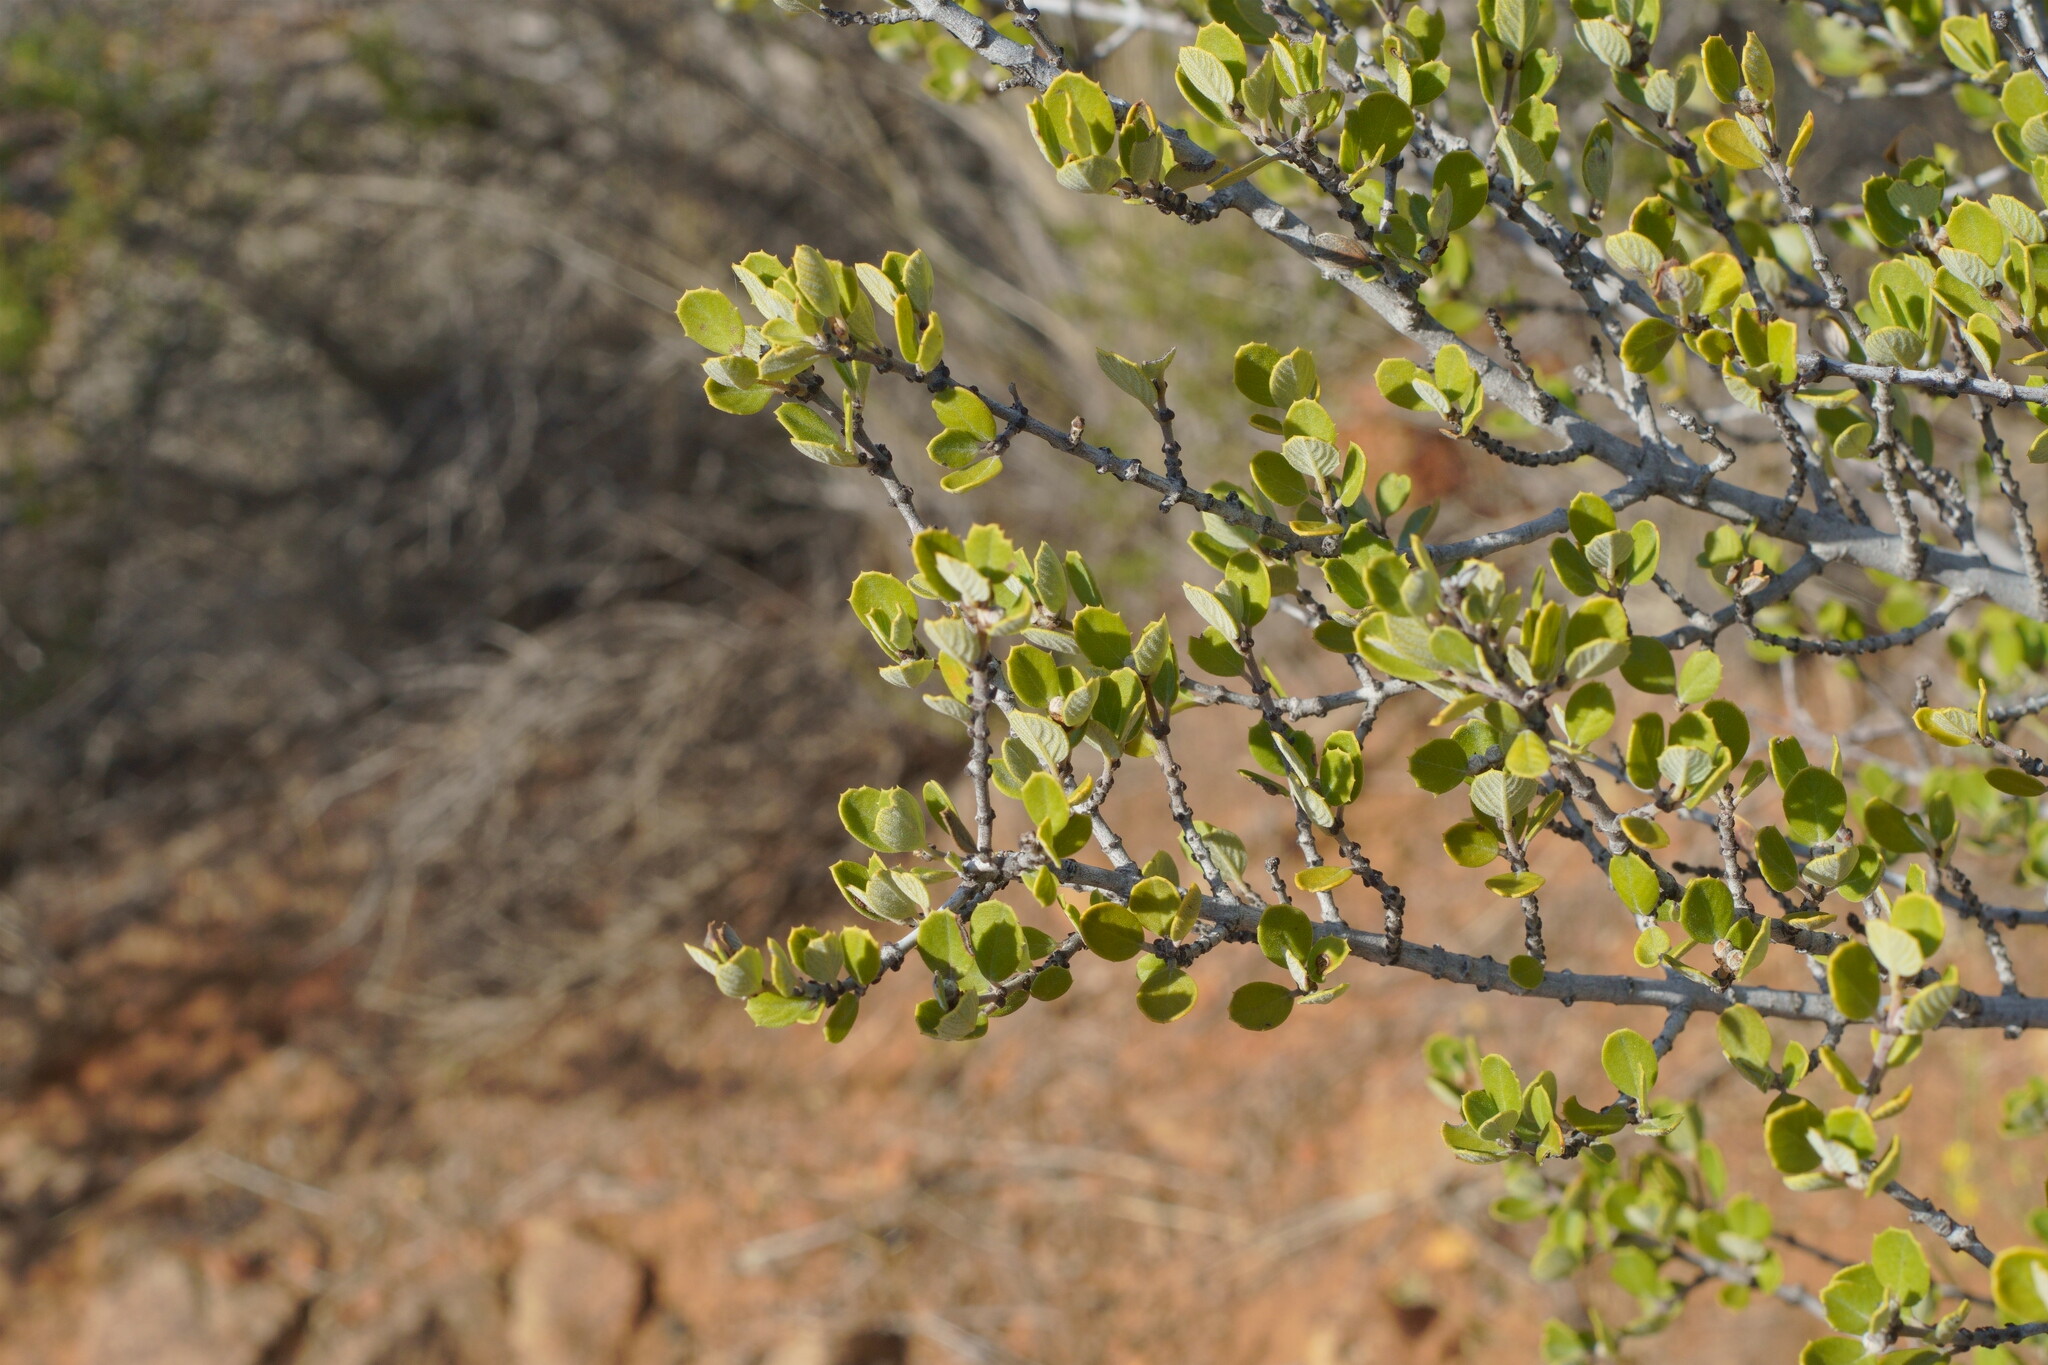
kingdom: Plantae
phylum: Tracheophyta
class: Magnoliopsida
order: Rosales
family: Rhamnaceae
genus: Ceanothus
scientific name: Ceanothus perplexans
